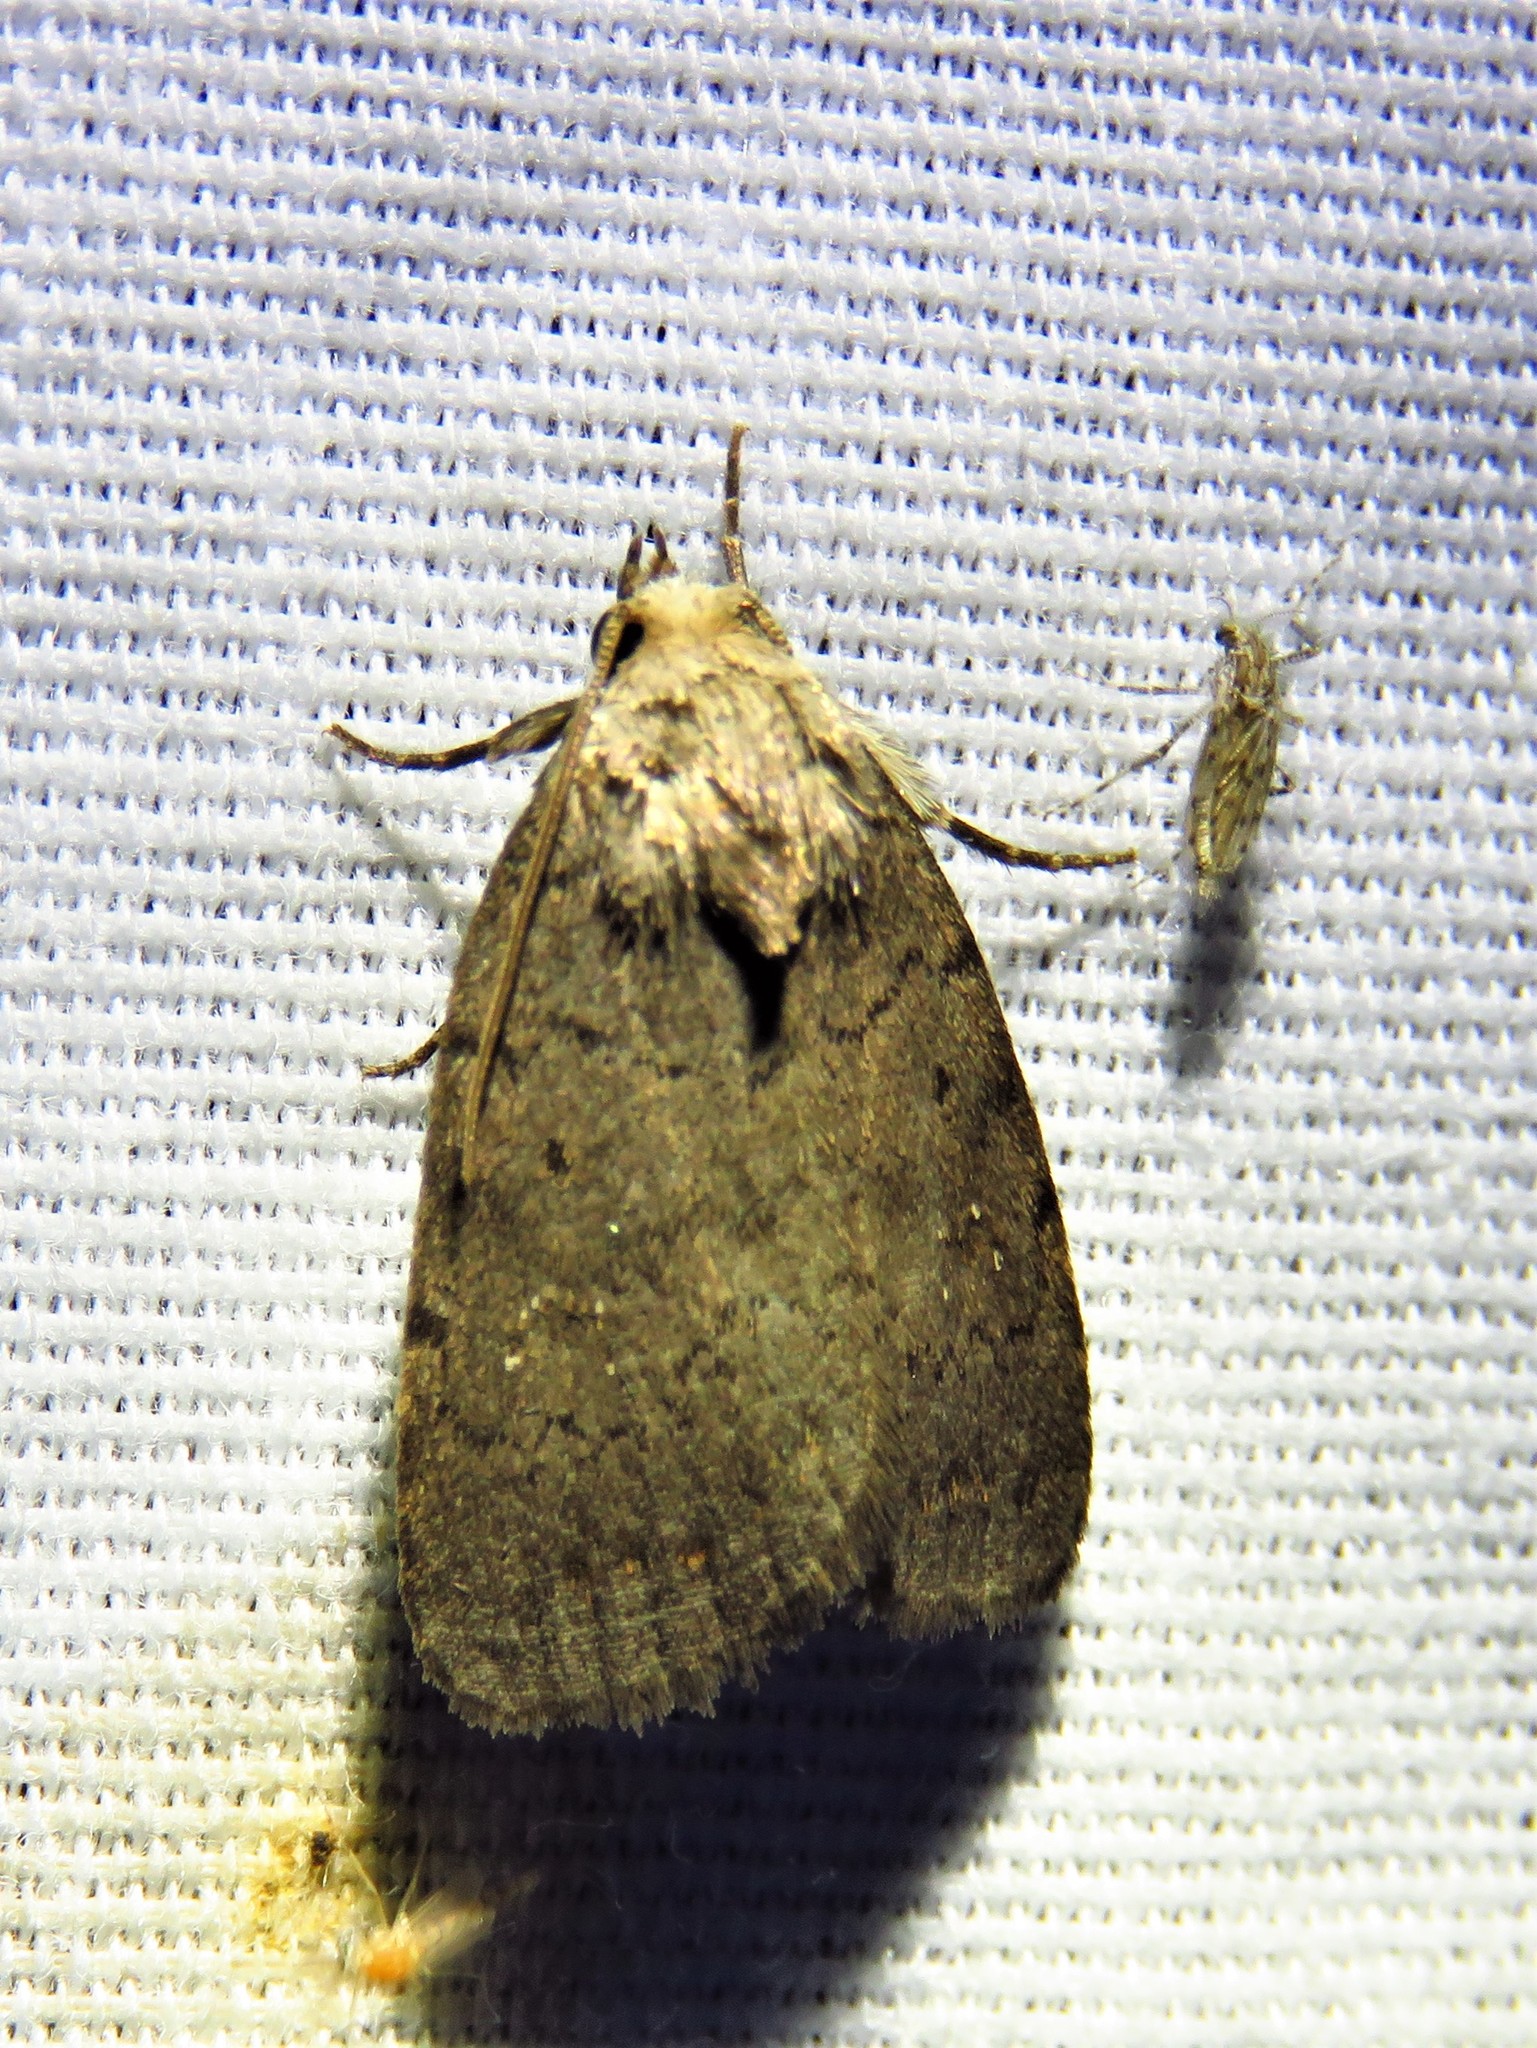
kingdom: Animalia
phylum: Arthropoda
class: Insecta
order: Lepidoptera
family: Noctuidae
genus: Athetis
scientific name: Athetis tarda
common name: Slowpoke moth
